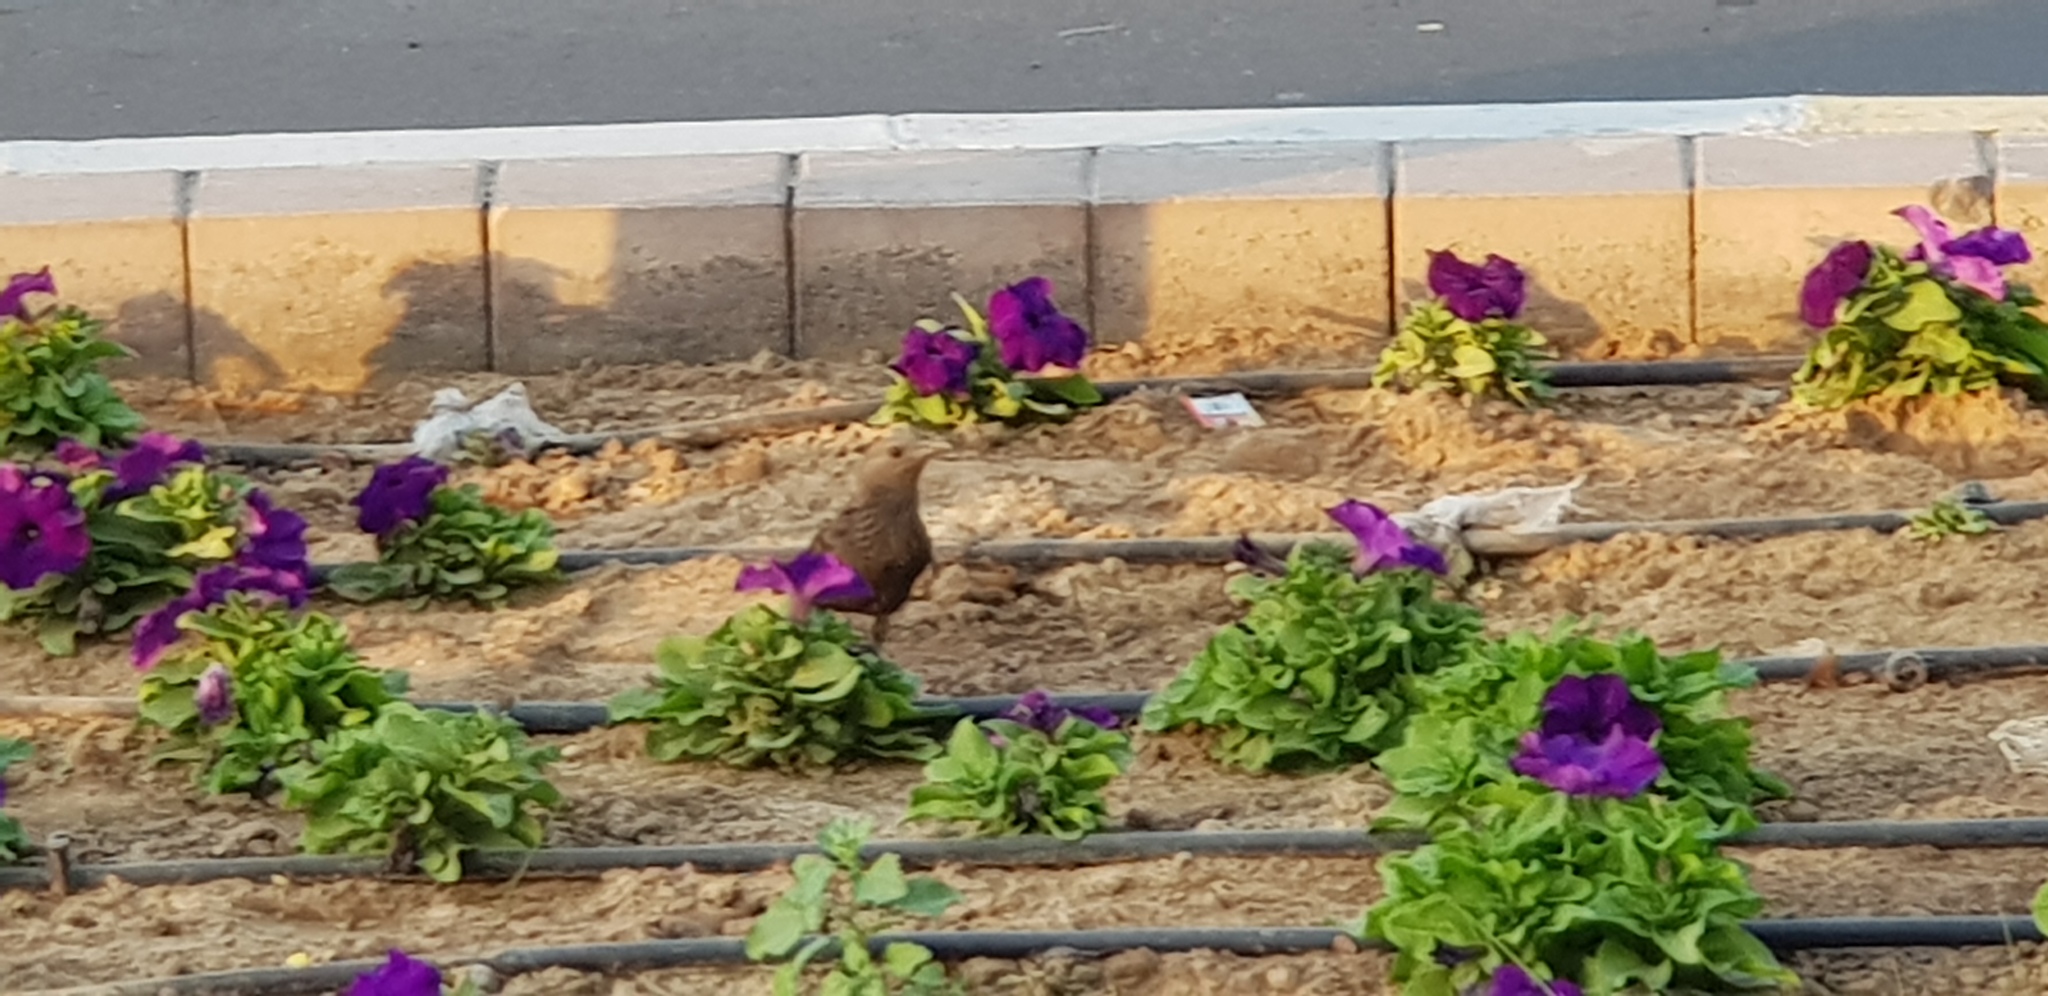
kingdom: Animalia
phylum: Chordata
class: Aves
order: Passeriformes
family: Sturnidae
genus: Onychognathus
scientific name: Onychognathus tristramii
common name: Tristram's starling
